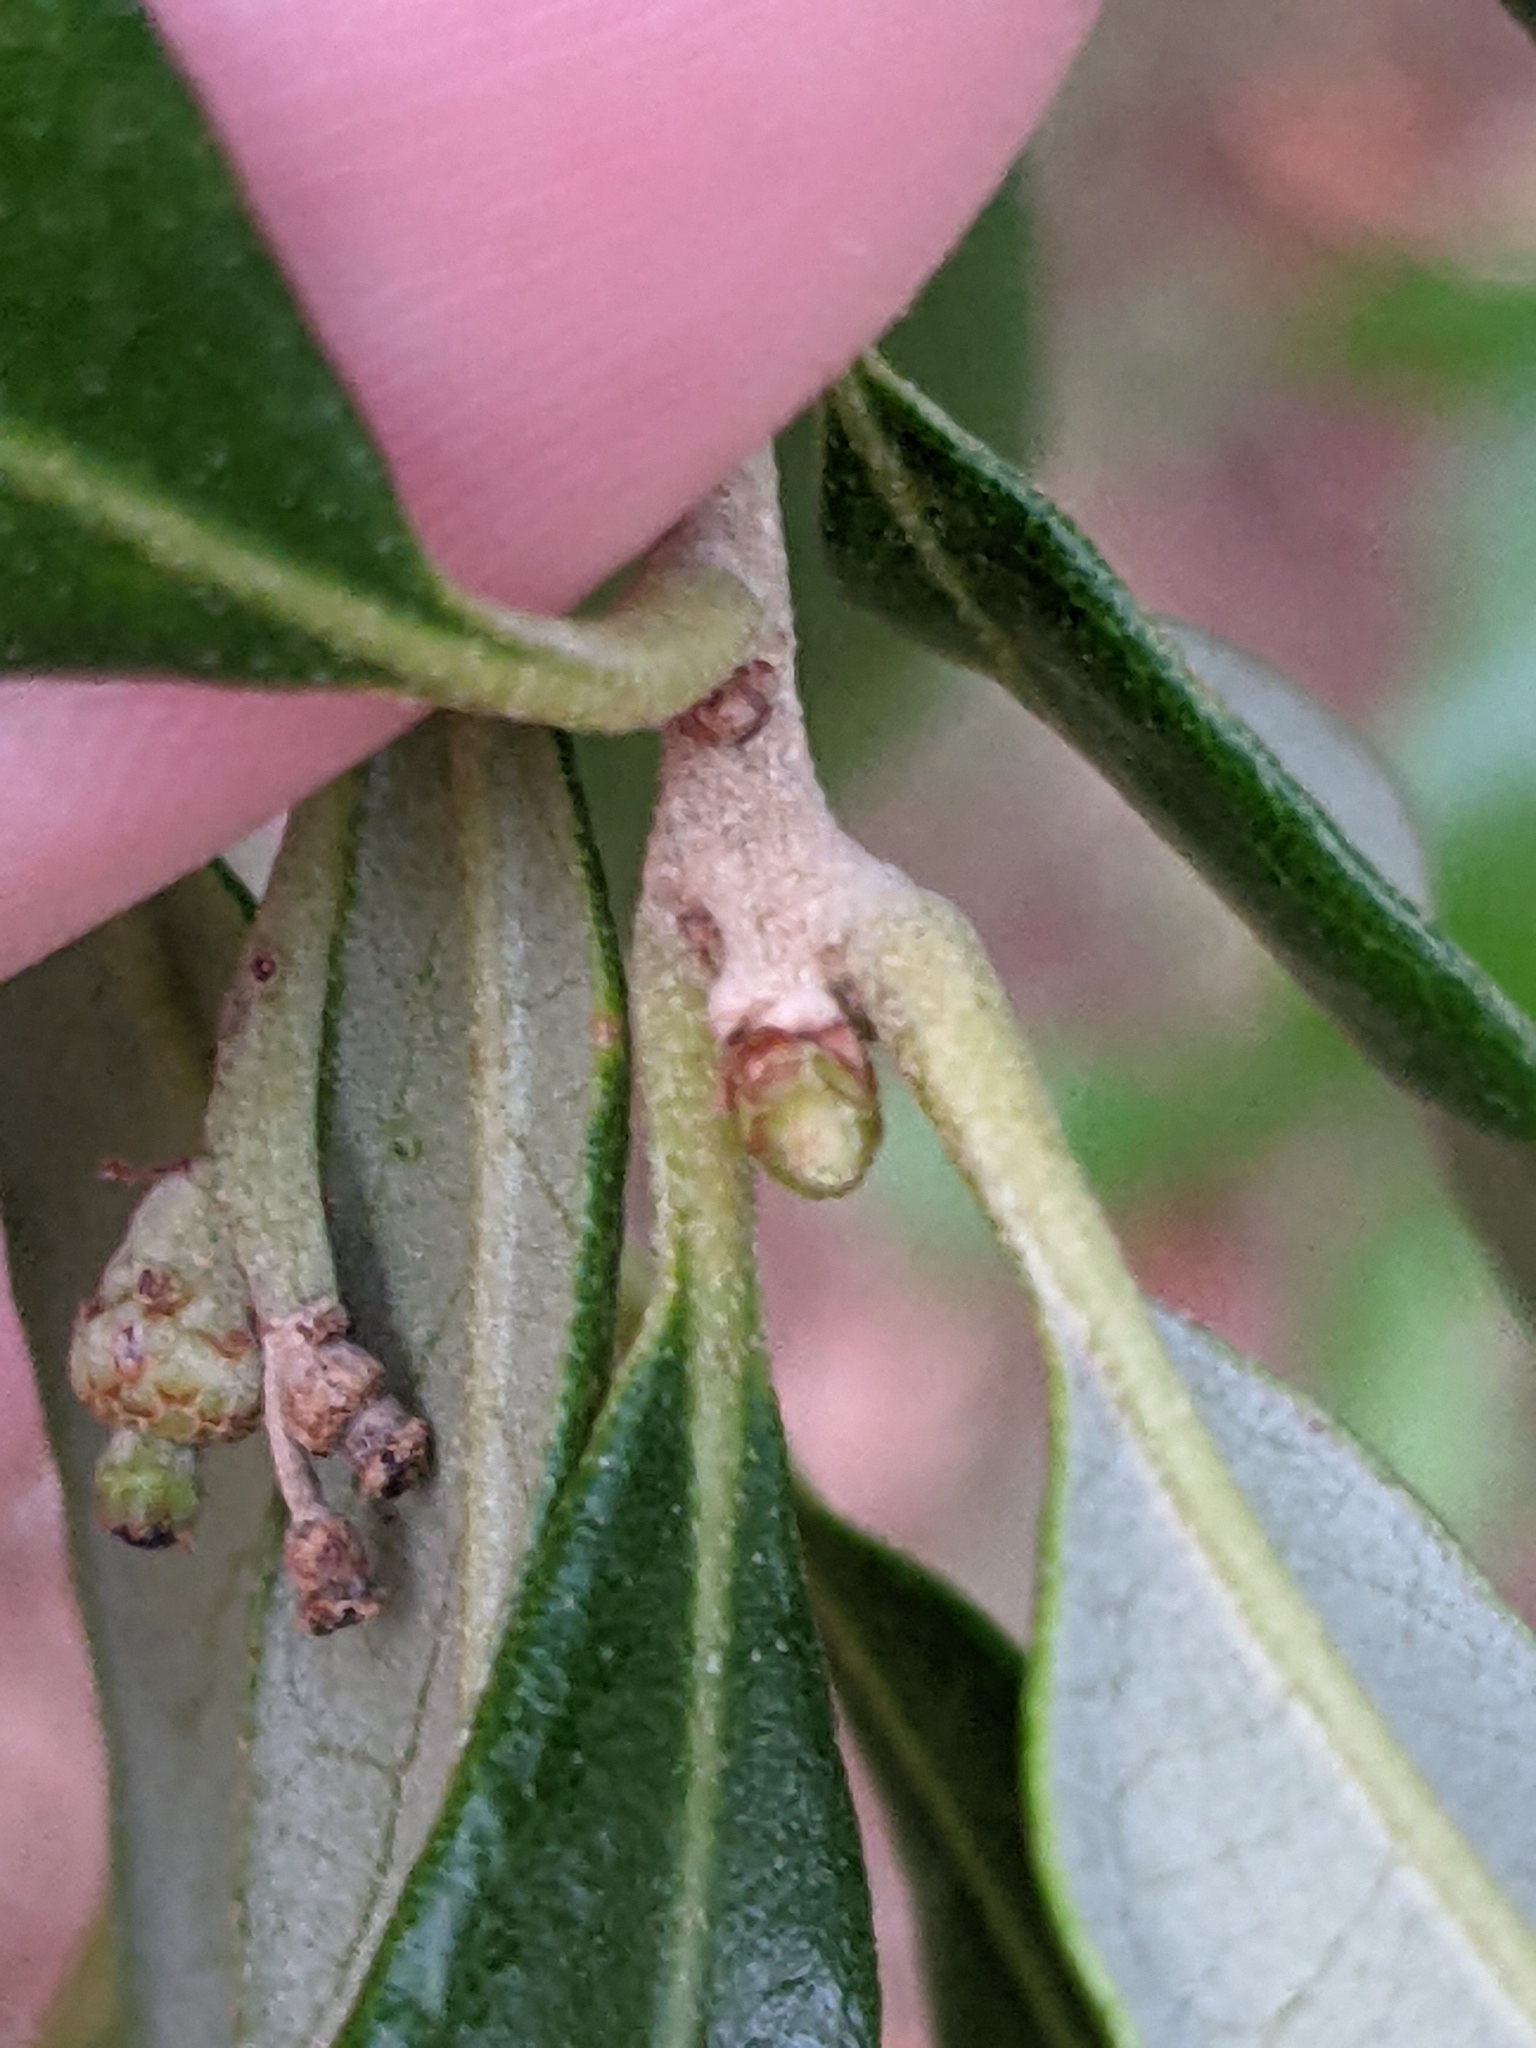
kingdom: Plantae
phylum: Tracheophyta
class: Magnoliopsida
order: Fagales
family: Fagaceae
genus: Quercus
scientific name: Quercus virginiana
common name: Southern live oak
